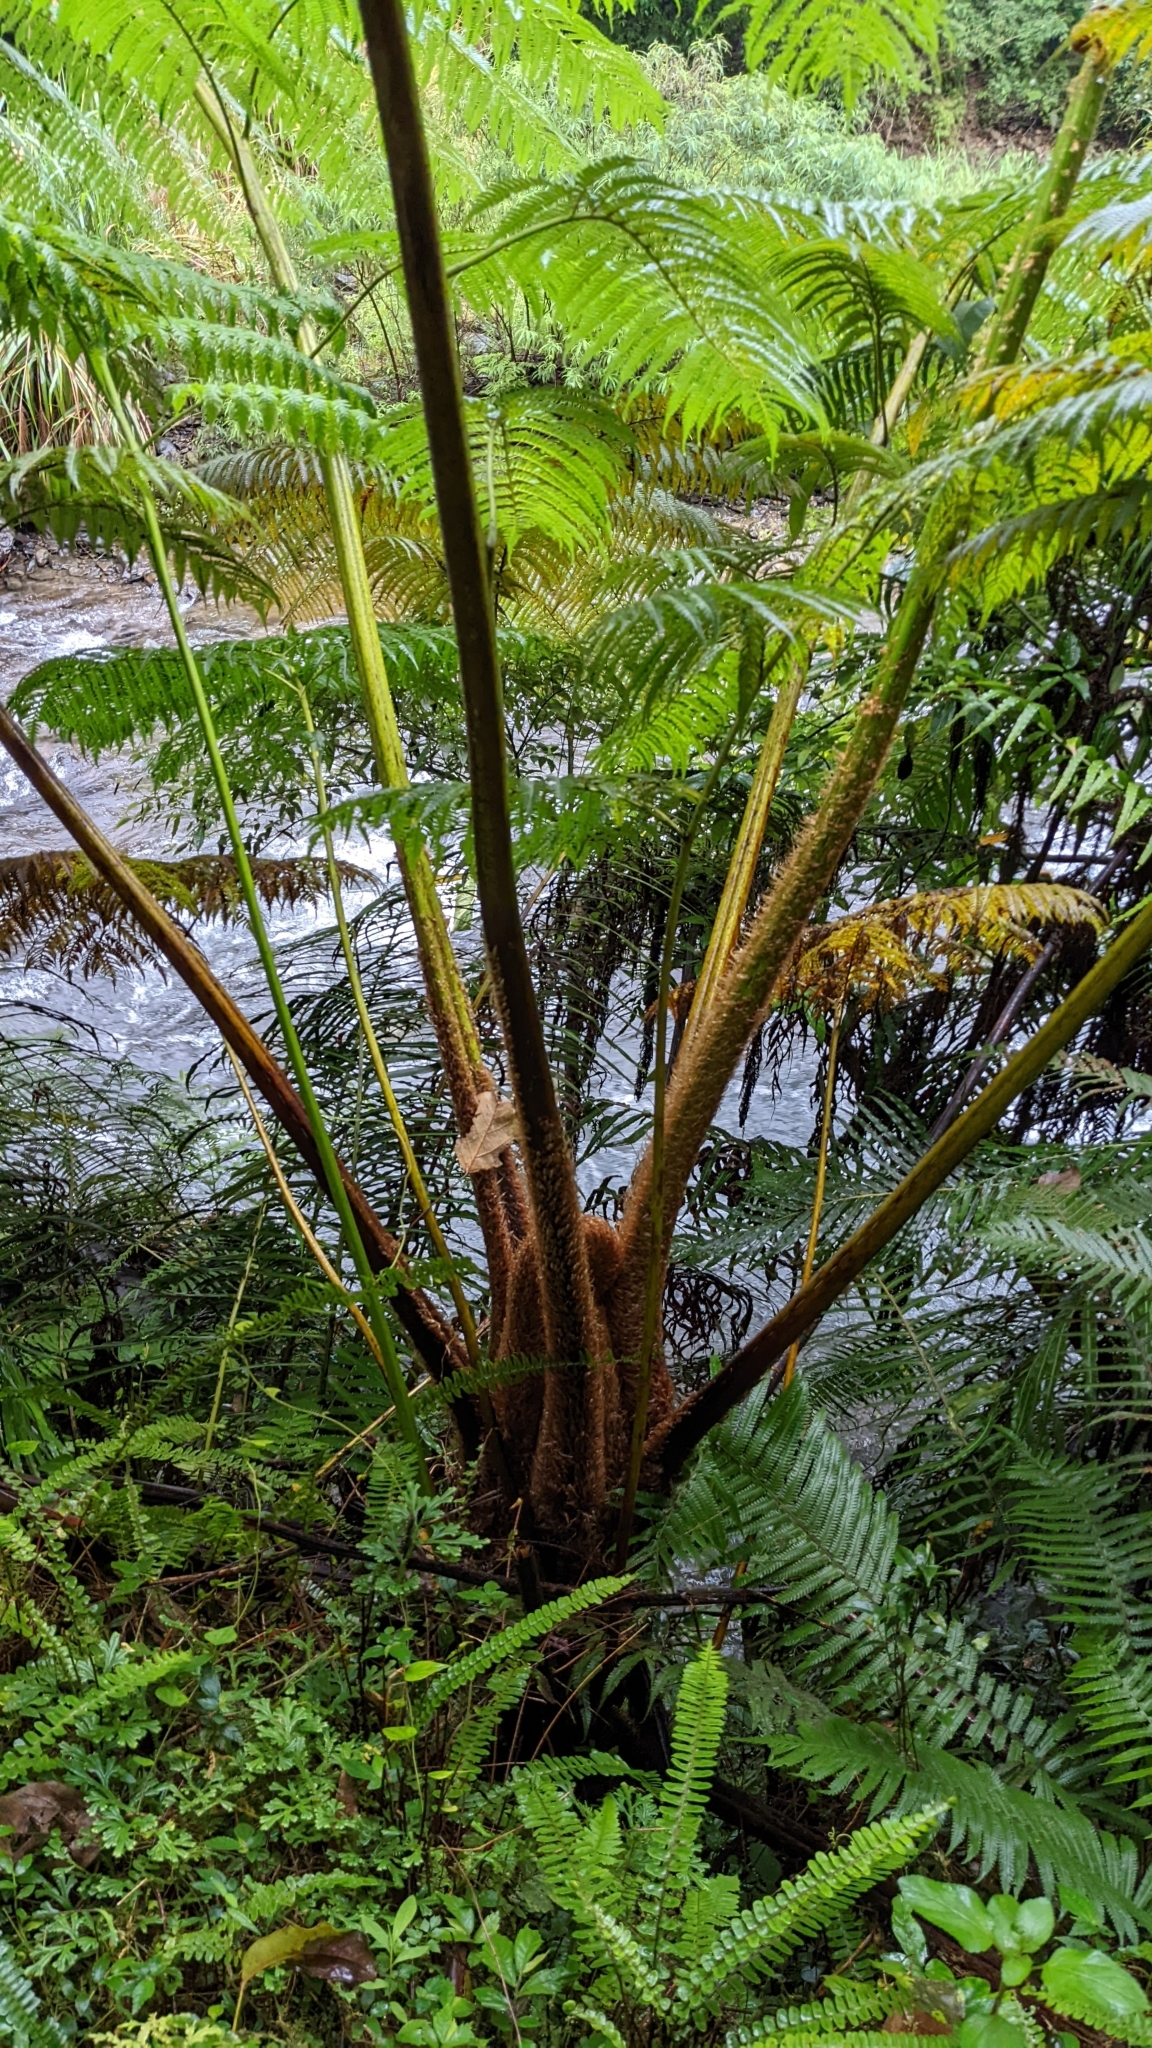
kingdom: Plantae
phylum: Tracheophyta
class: Polypodiopsida
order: Cyatheales
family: Cyatheaceae
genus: Alsophila
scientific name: Alsophila lepifera
